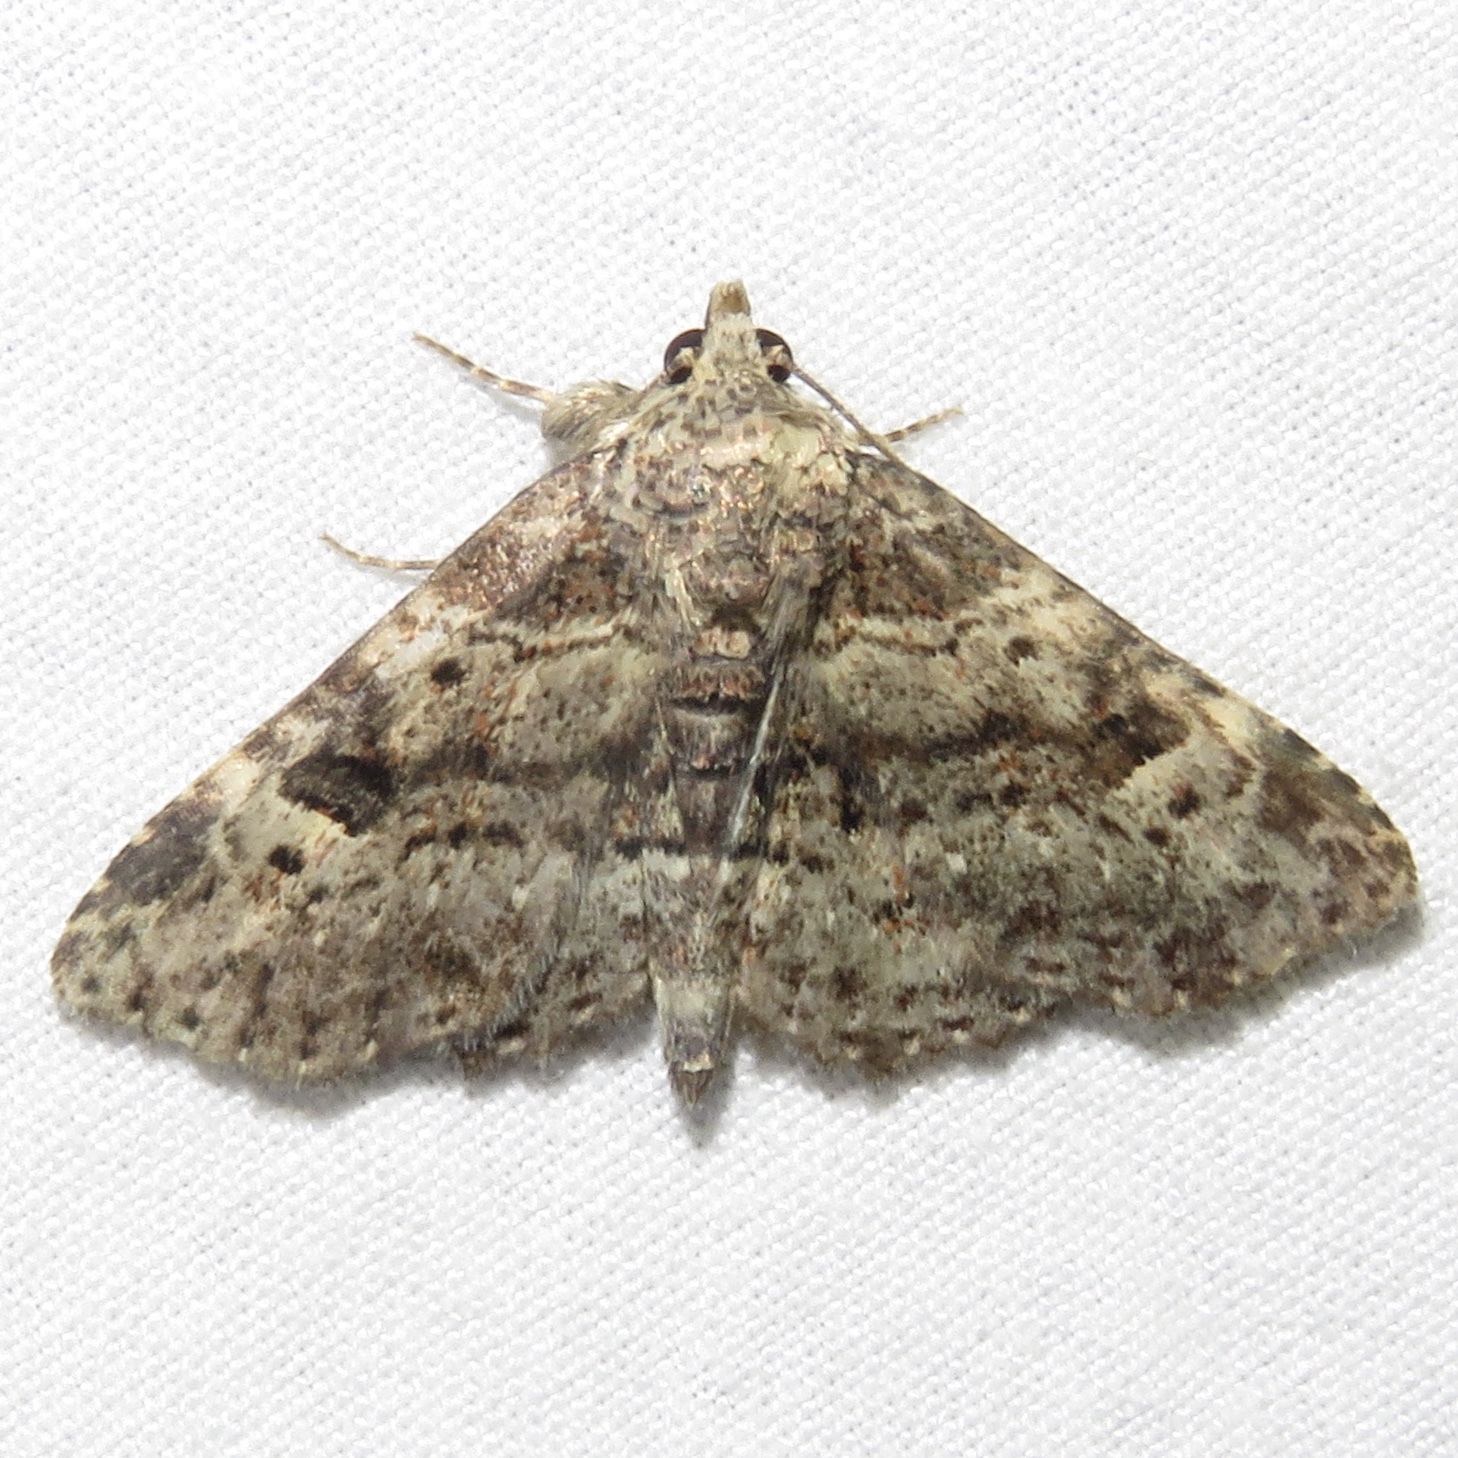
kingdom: Animalia
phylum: Arthropoda
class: Insecta
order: Lepidoptera
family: Erebidae
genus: Metalectra
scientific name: Metalectra discalis
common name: Common fungus moth
